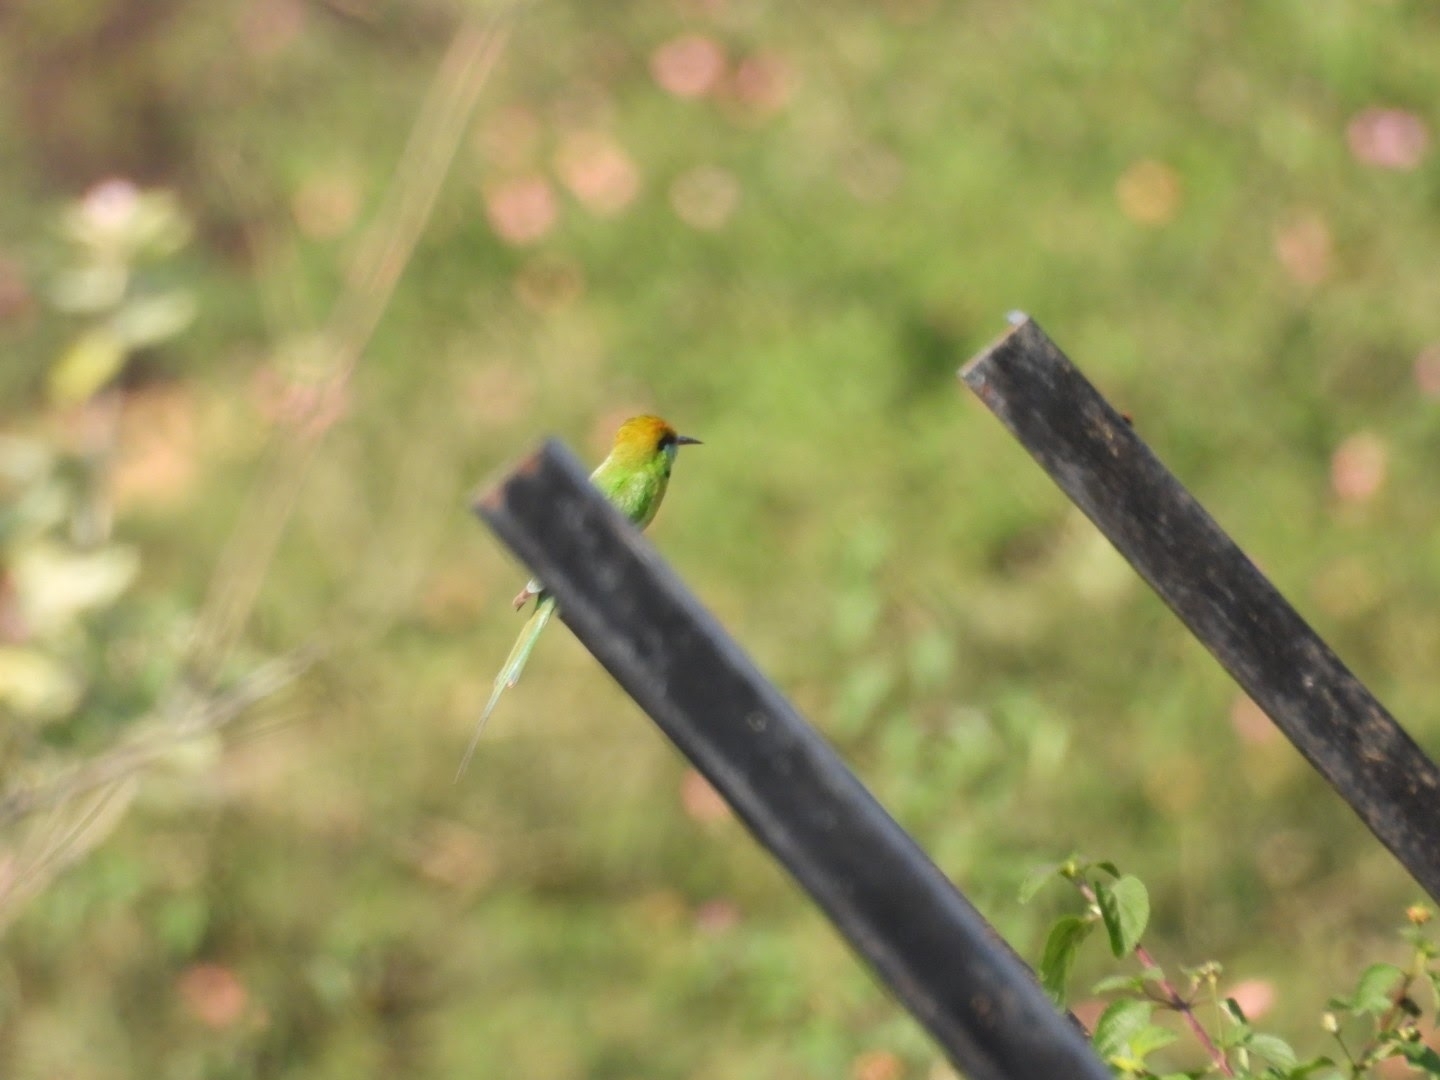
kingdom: Animalia
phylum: Chordata
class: Aves
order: Coraciiformes
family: Meropidae
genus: Merops
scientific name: Merops orientalis
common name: Green bee-eater
